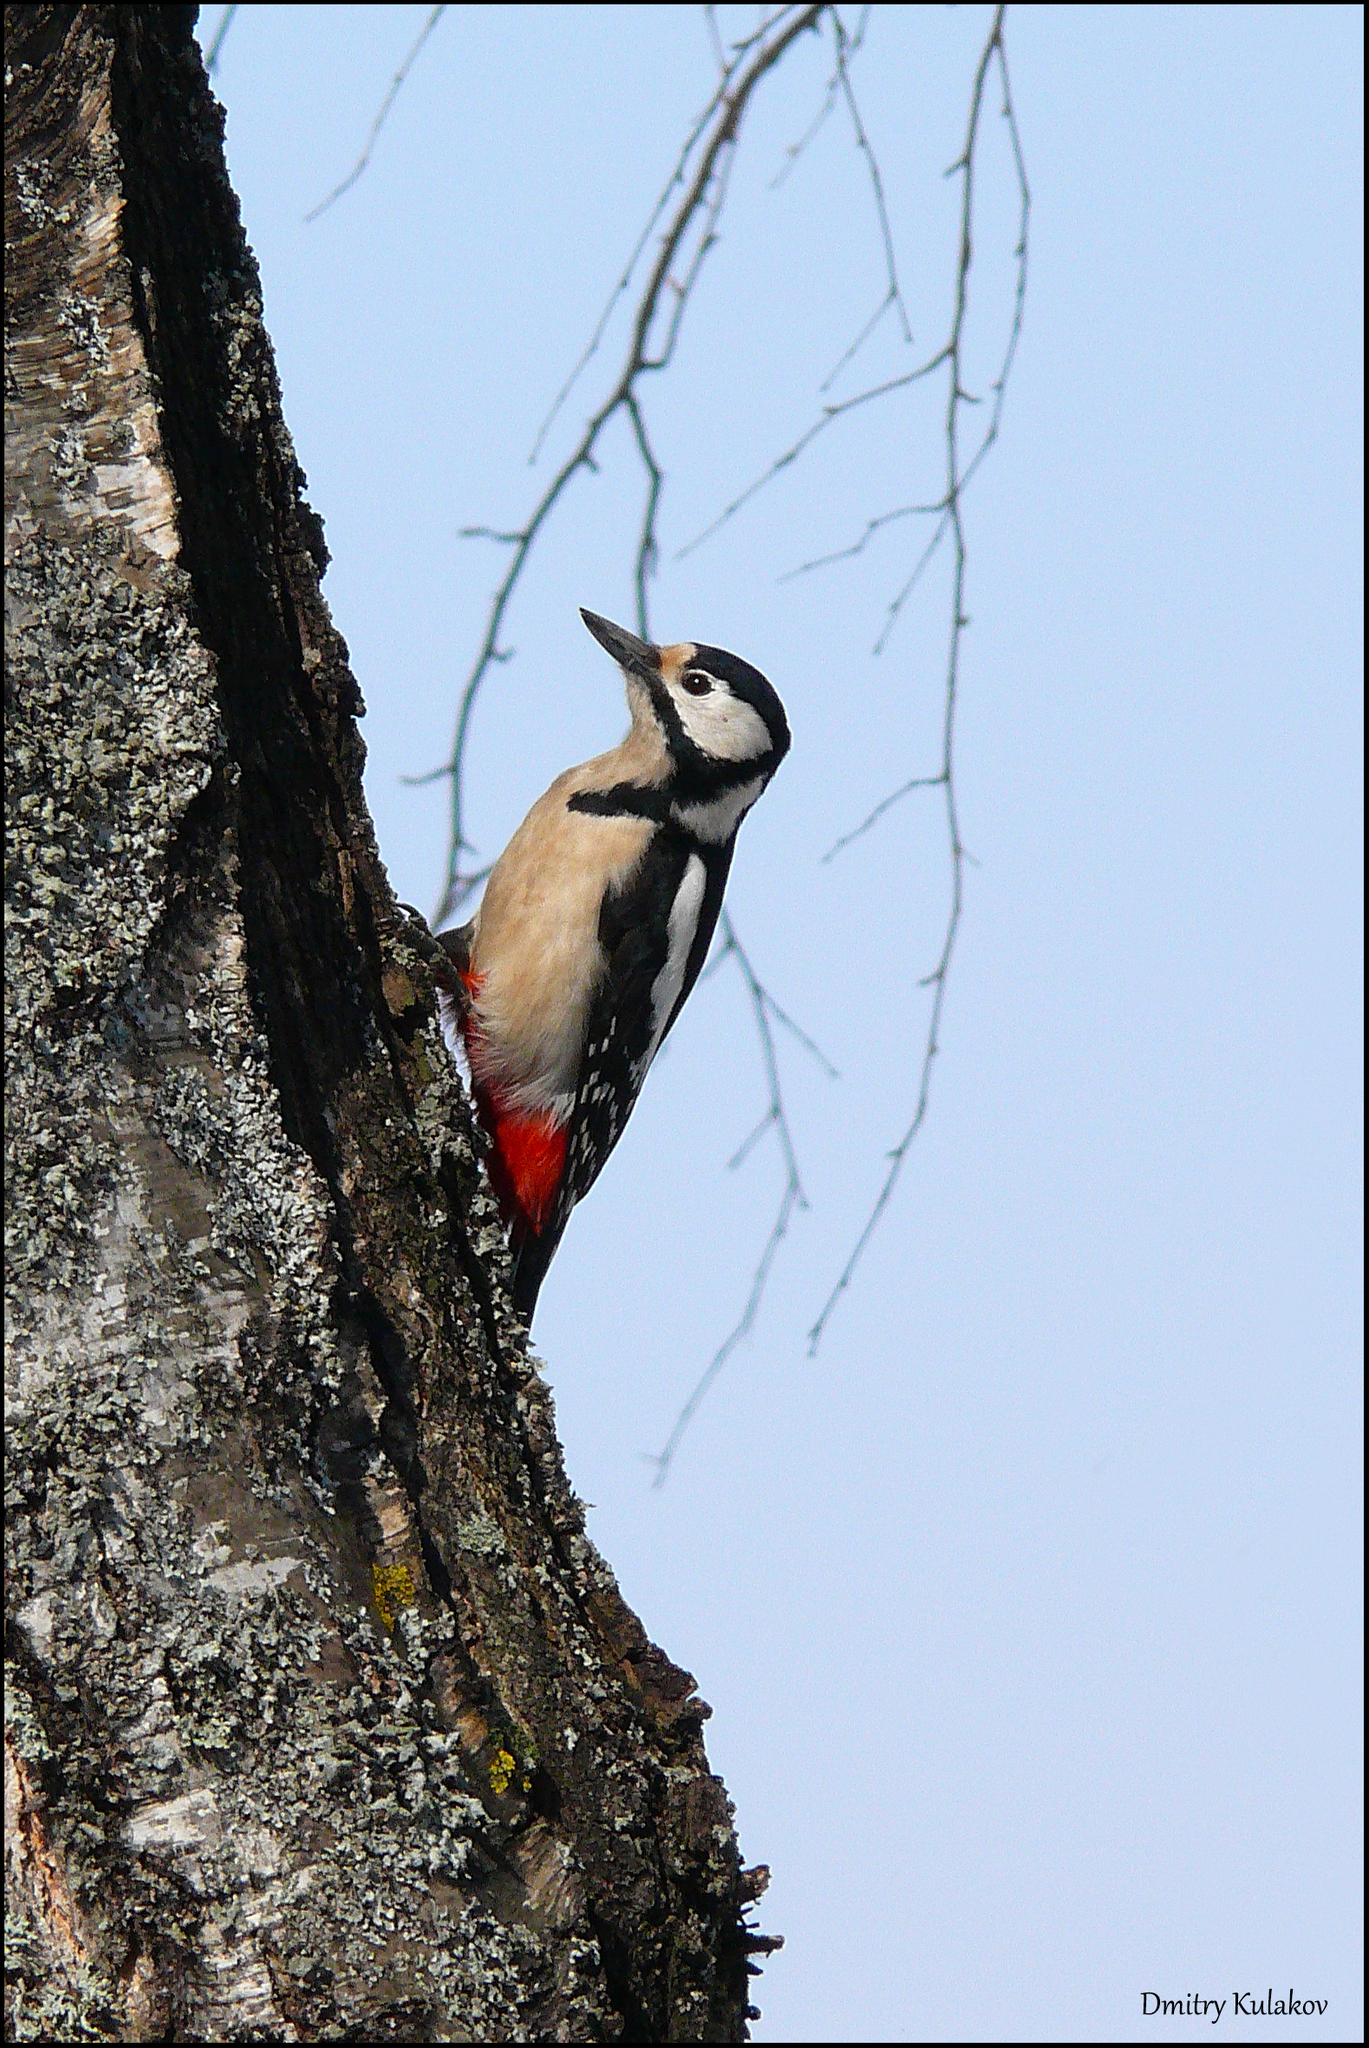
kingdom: Animalia
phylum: Chordata
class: Aves
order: Piciformes
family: Picidae
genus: Dendrocopos
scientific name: Dendrocopos major
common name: Great spotted woodpecker
